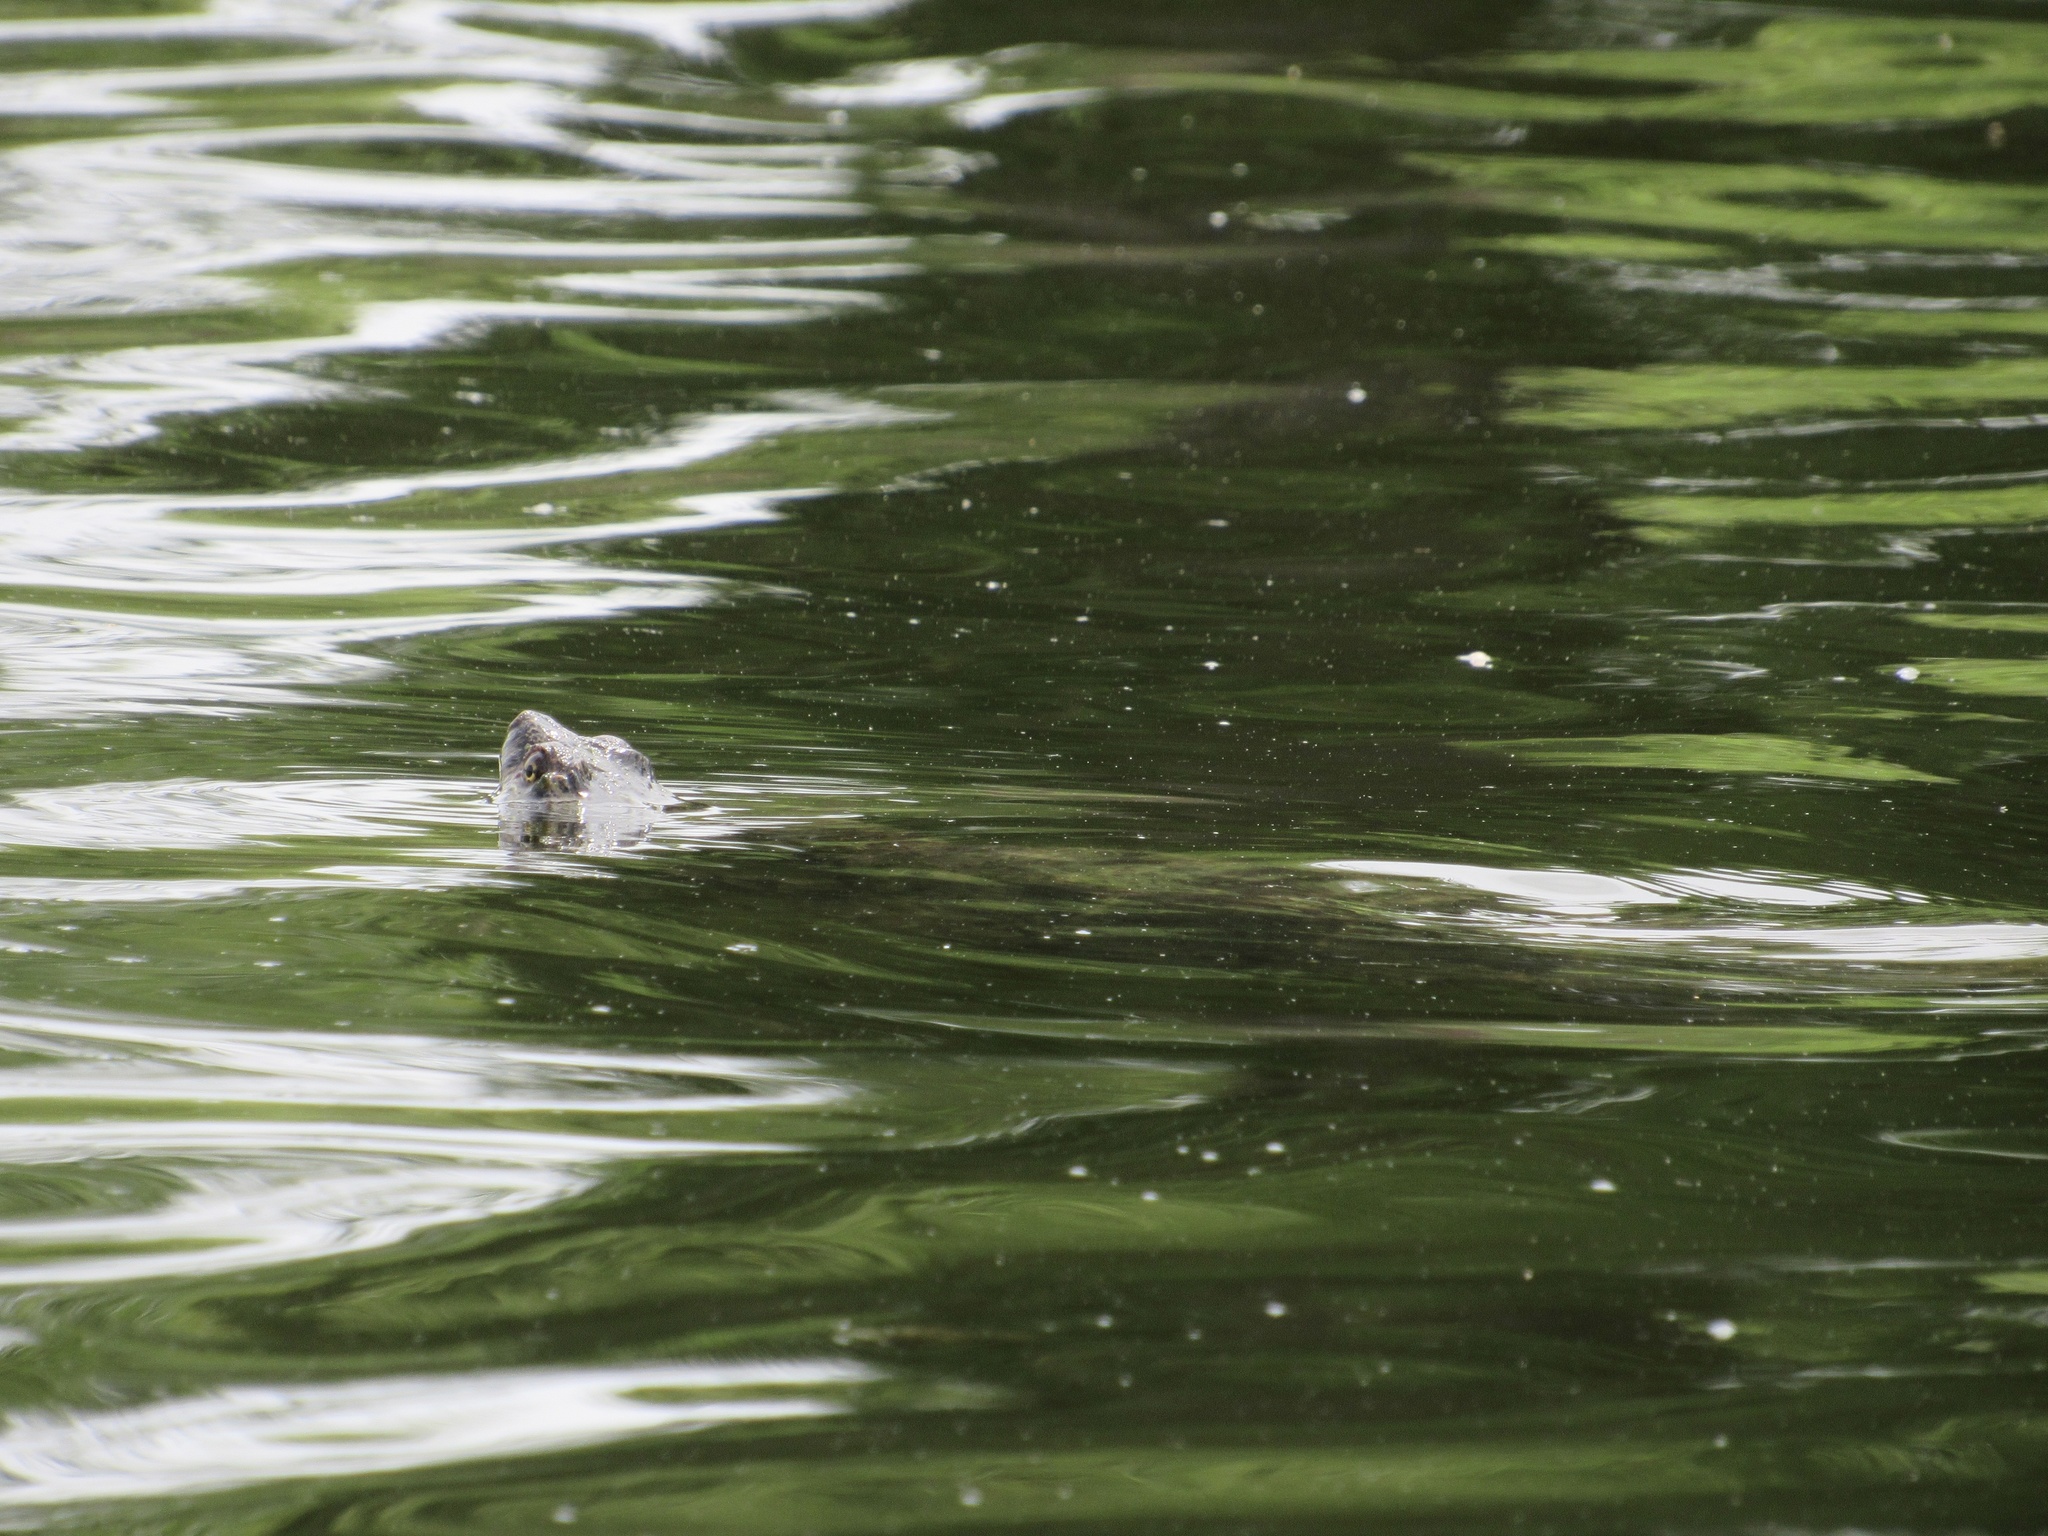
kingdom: Animalia
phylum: Chordata
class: Testudines
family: Chelydridae
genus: Chelydra
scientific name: Chelydra serpentina
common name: Common snapping turtle
